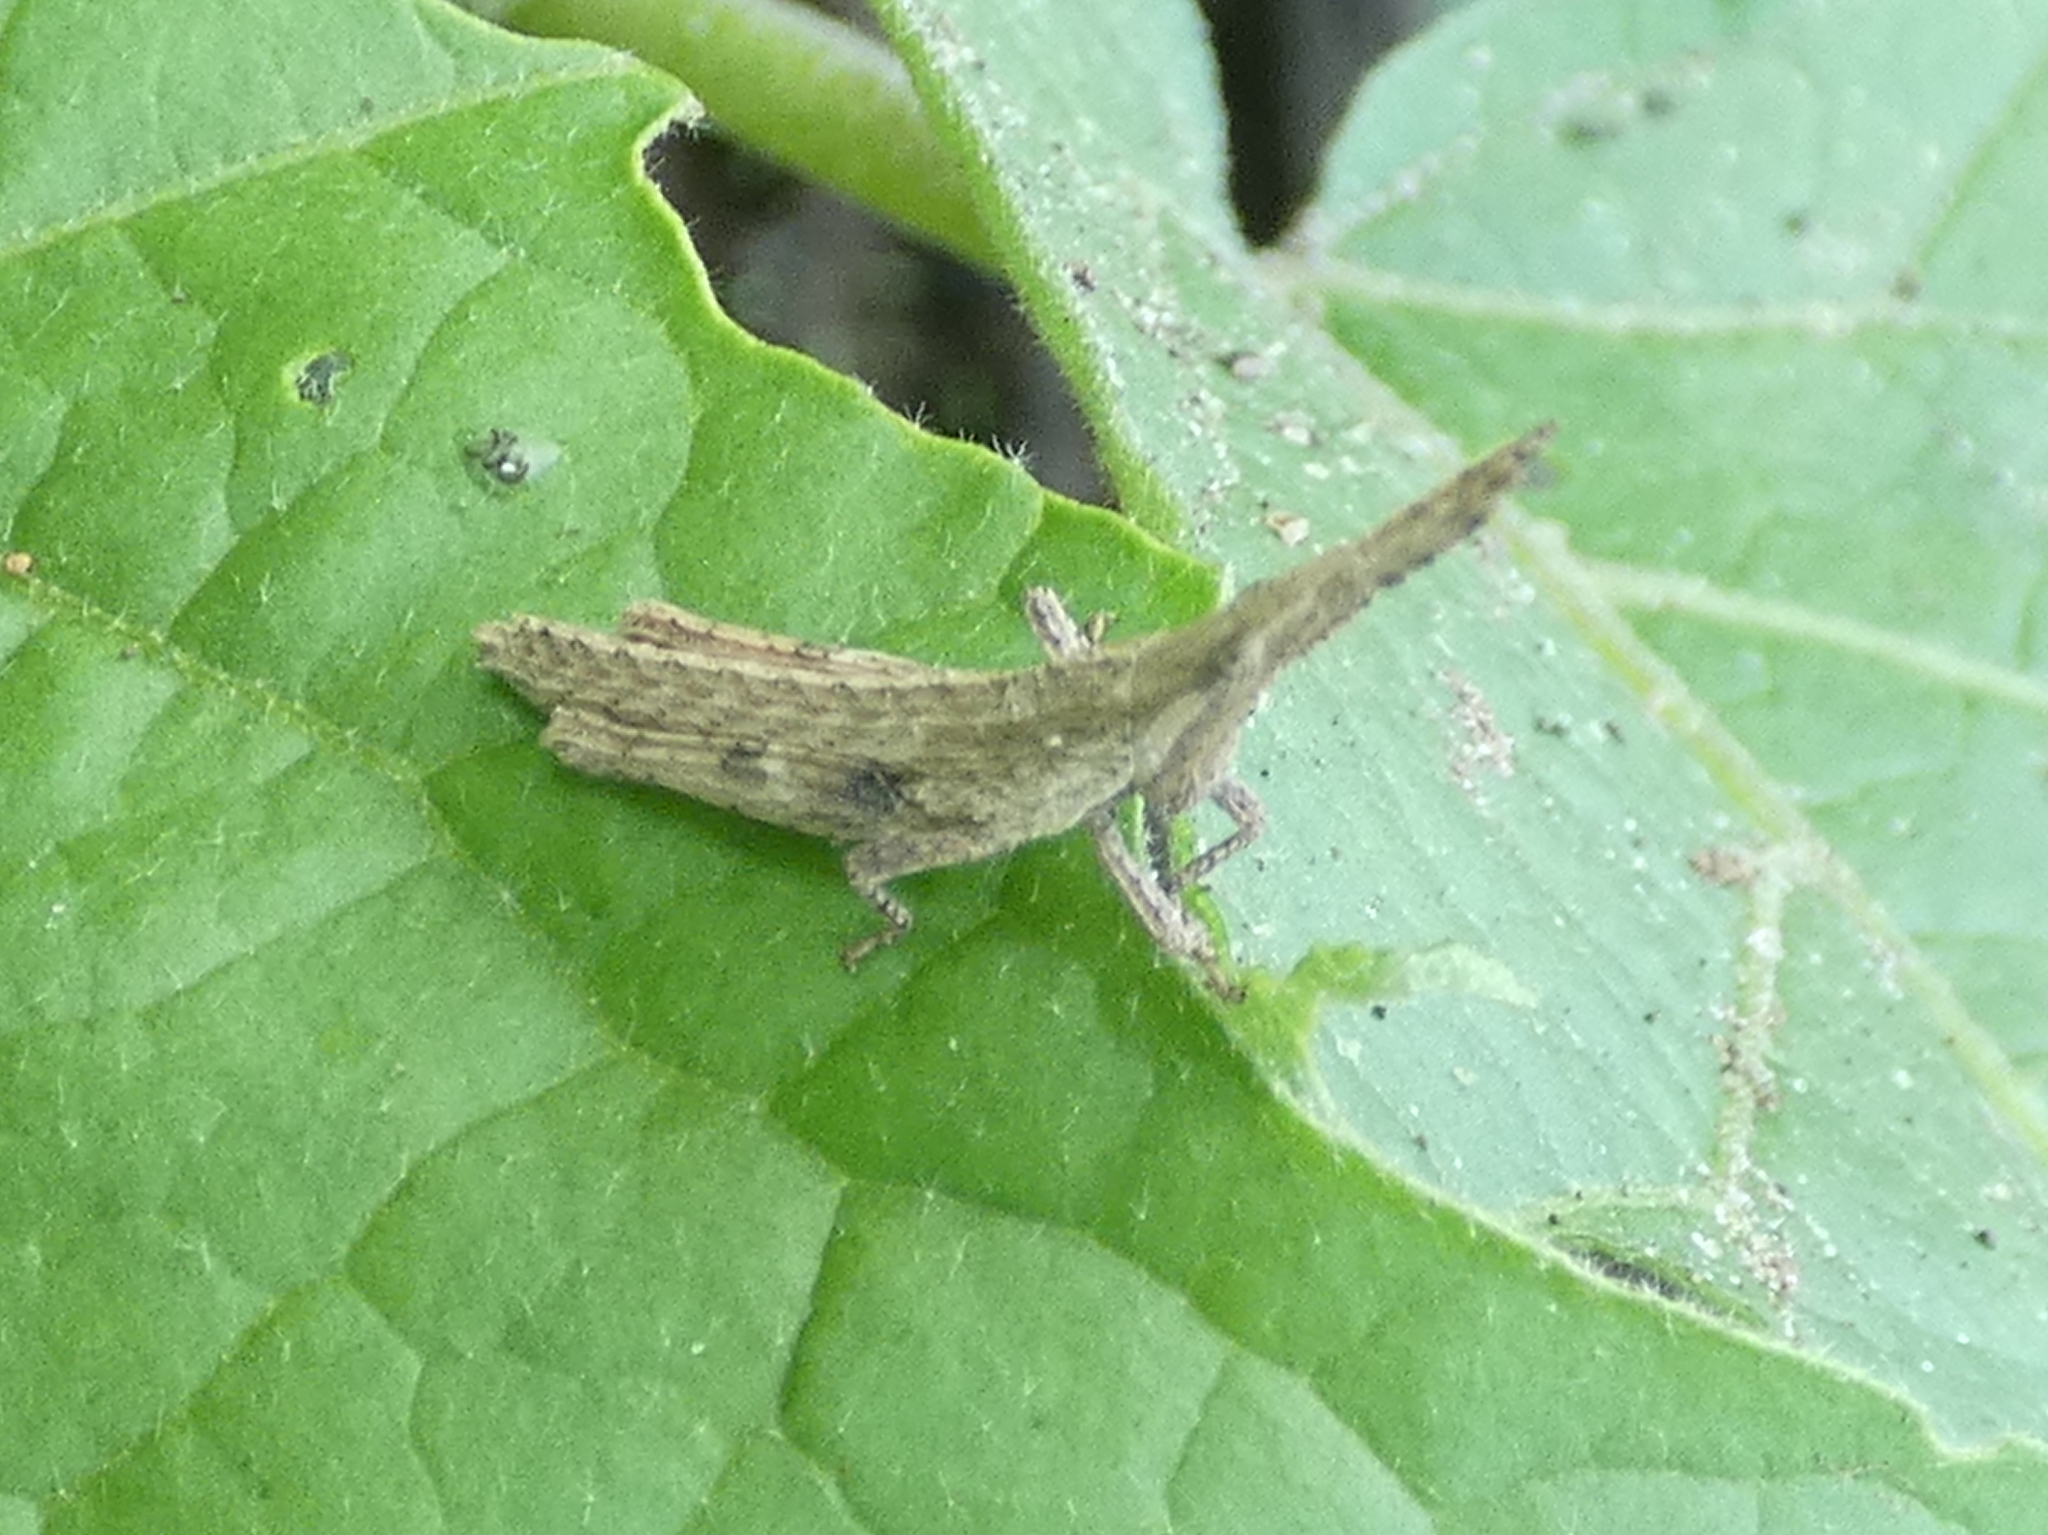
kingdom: Animalia
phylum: Arthropoda
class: Insecta
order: Orthoptera
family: Pyrgomorphidae
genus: Algete
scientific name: Algete brunneri
